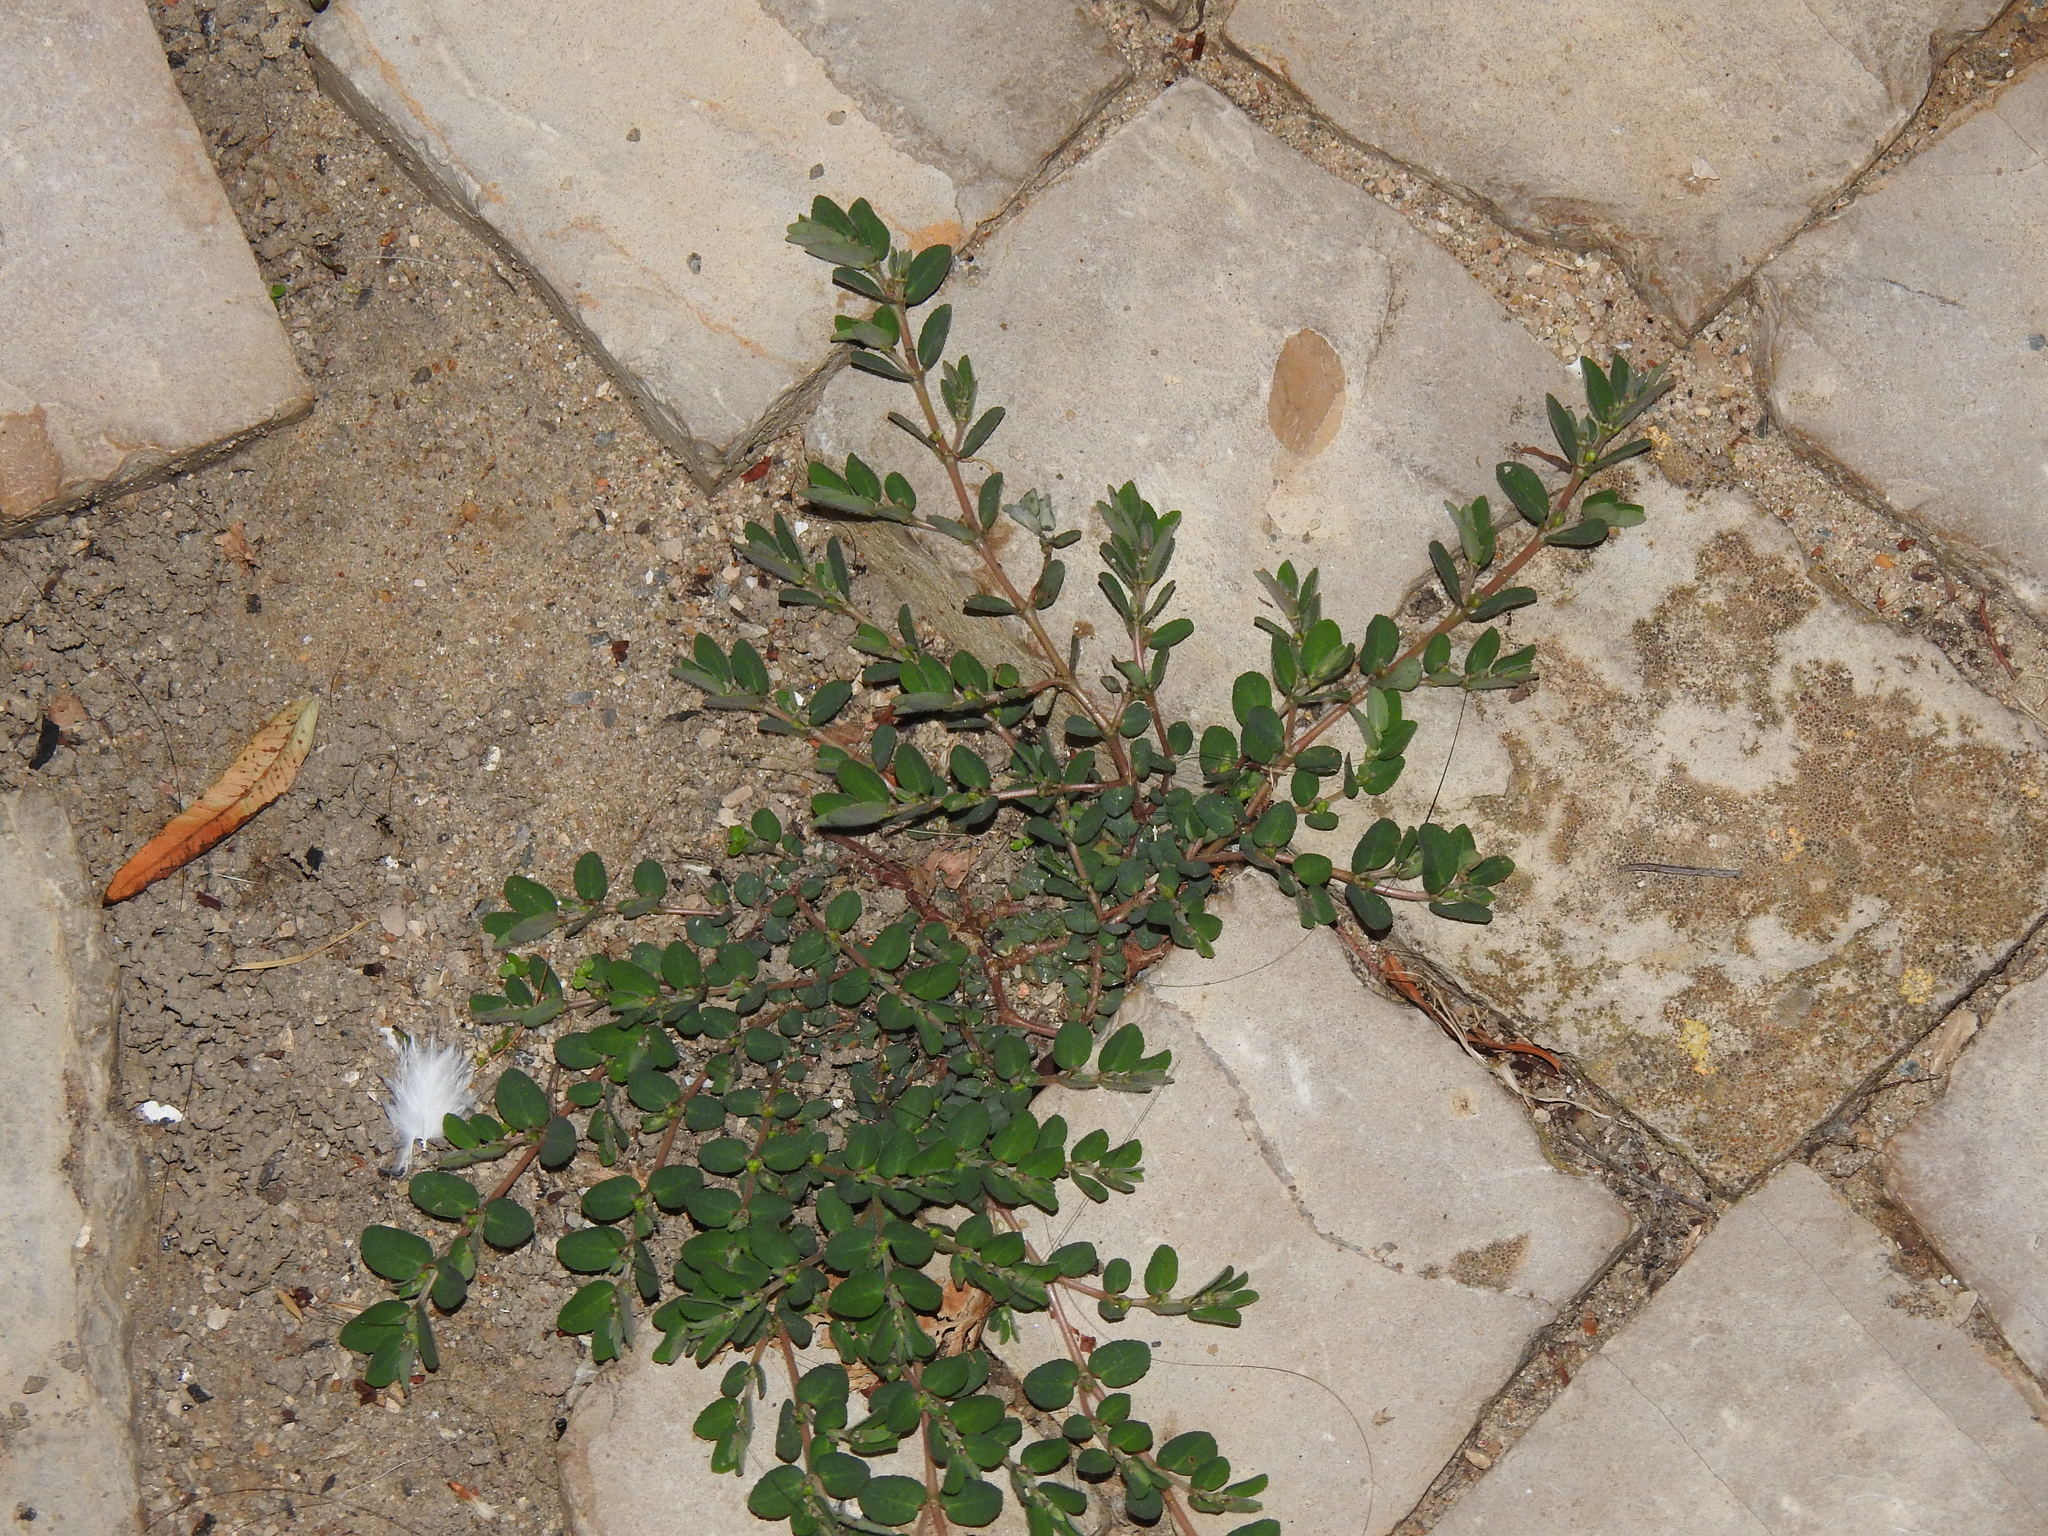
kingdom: Plantae
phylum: Tracheophyta
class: Magnoliopsida
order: Malpighiales
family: Euphorbiaceae
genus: Euphorbia
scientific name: Euphorbia prostrata
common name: Prostrate sandmat
